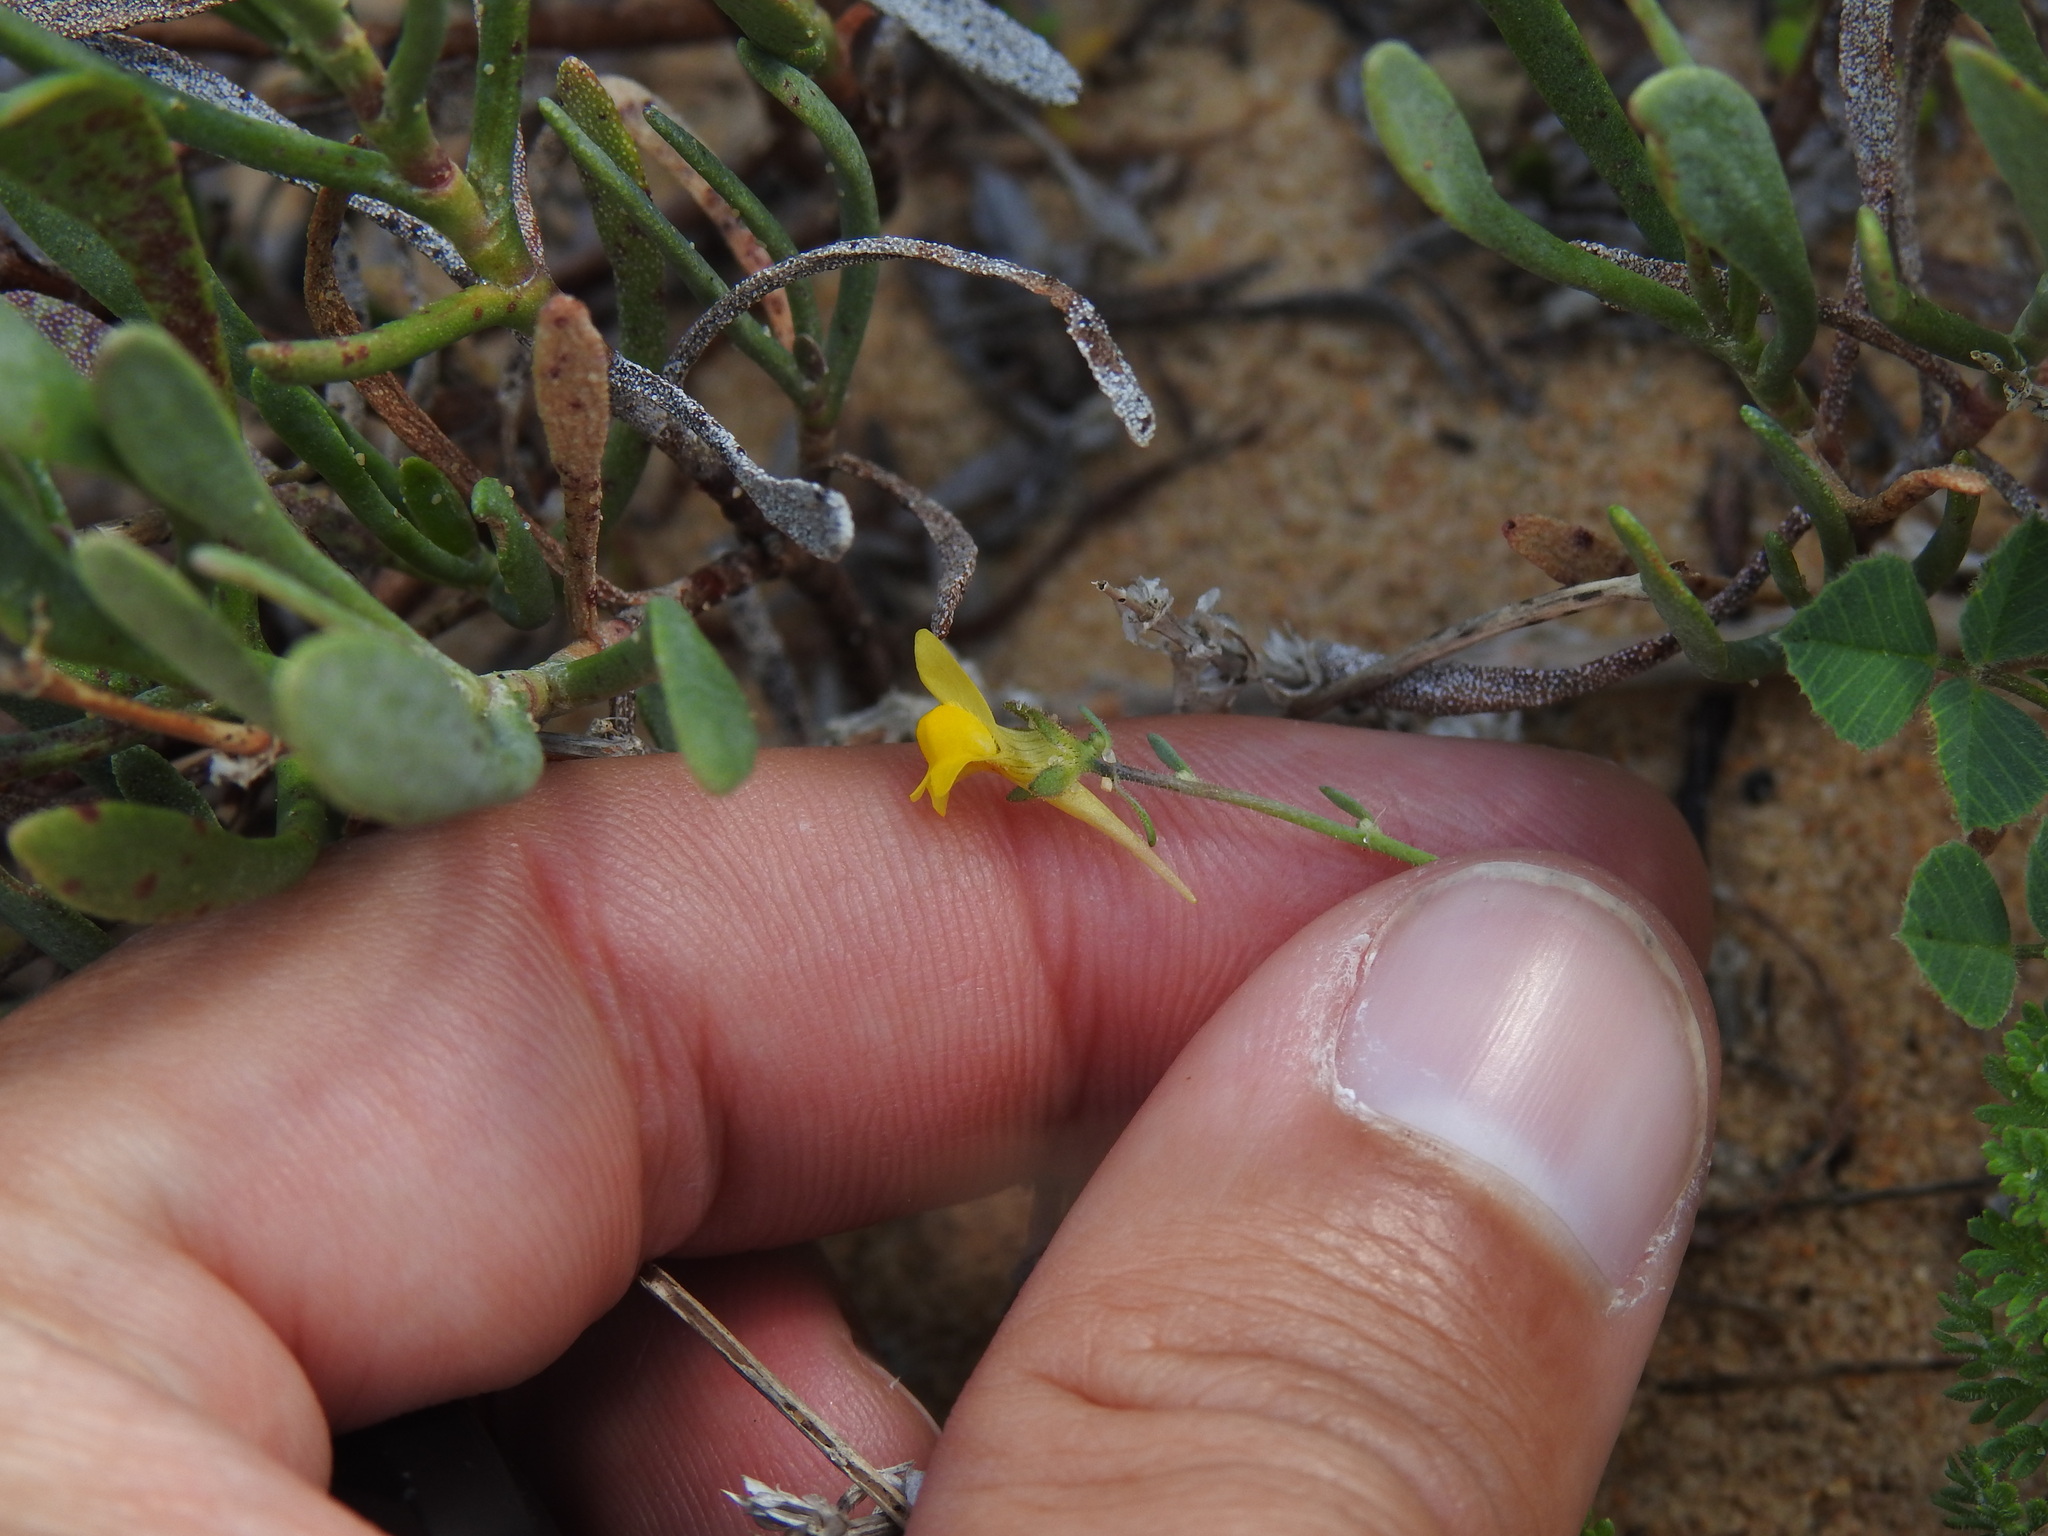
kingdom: Plantae
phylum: Tracheophyta
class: Magnoliopsida
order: Lamiales
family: Plantaginaceae
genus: Linaria
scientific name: Linaria munbyana
